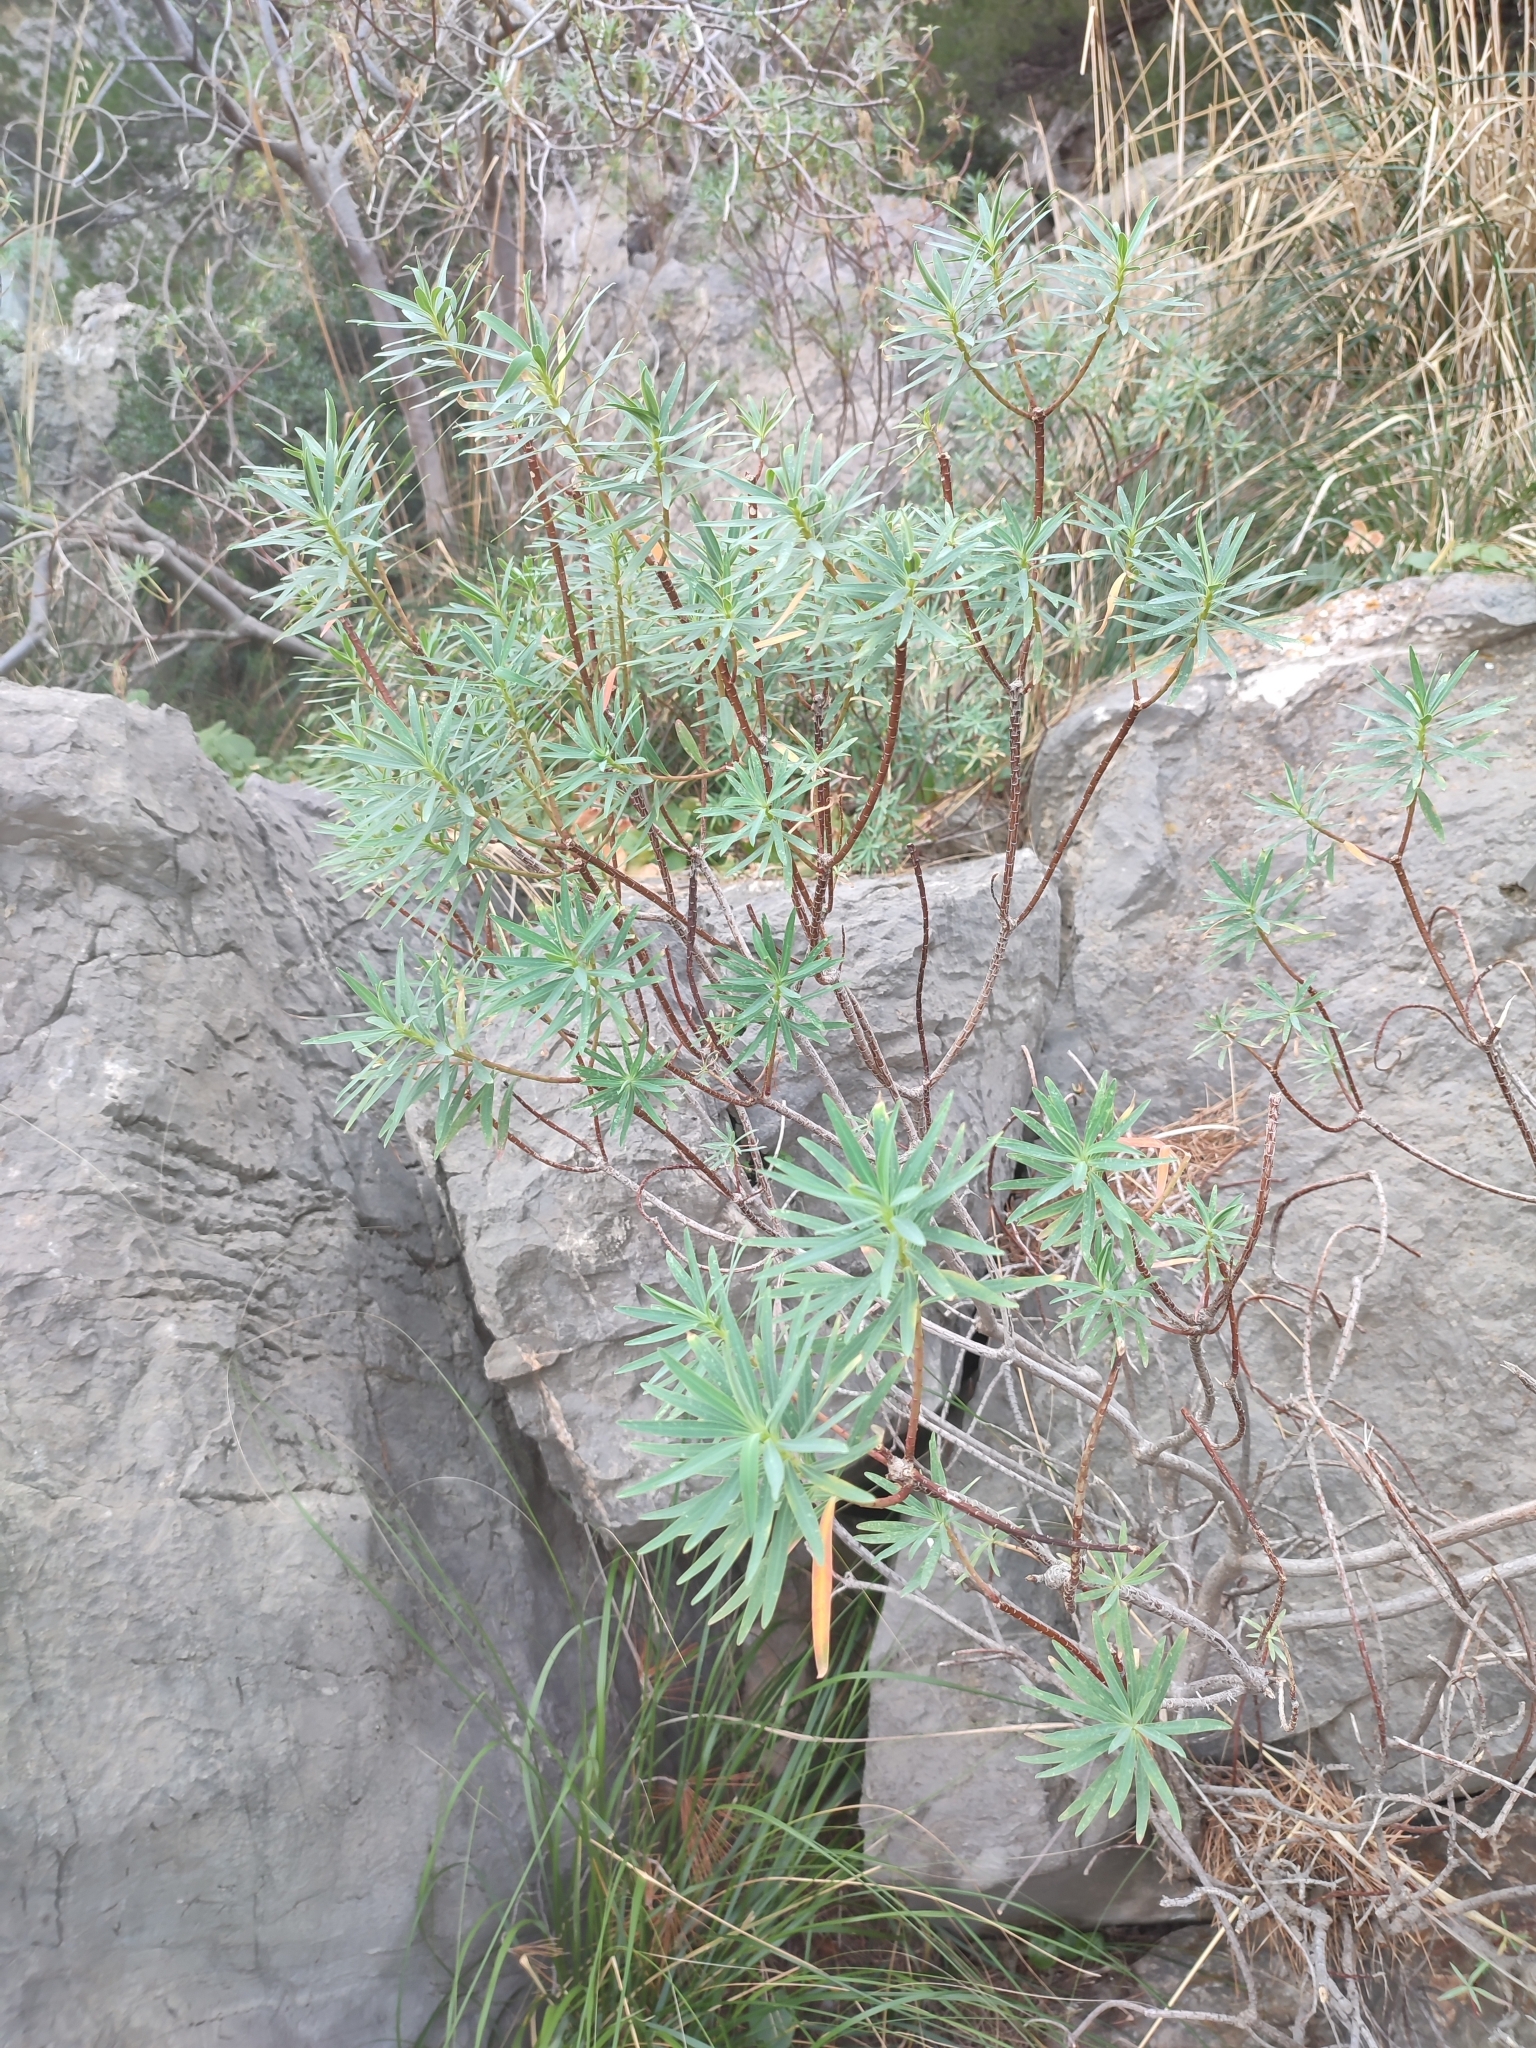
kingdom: Plantae
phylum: Tracheophyta
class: Magnoliopsida
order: Malpighiales
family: Euphorbiaceae
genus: Euphorbia
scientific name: Euphorbia dendroides
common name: Tree spurge
